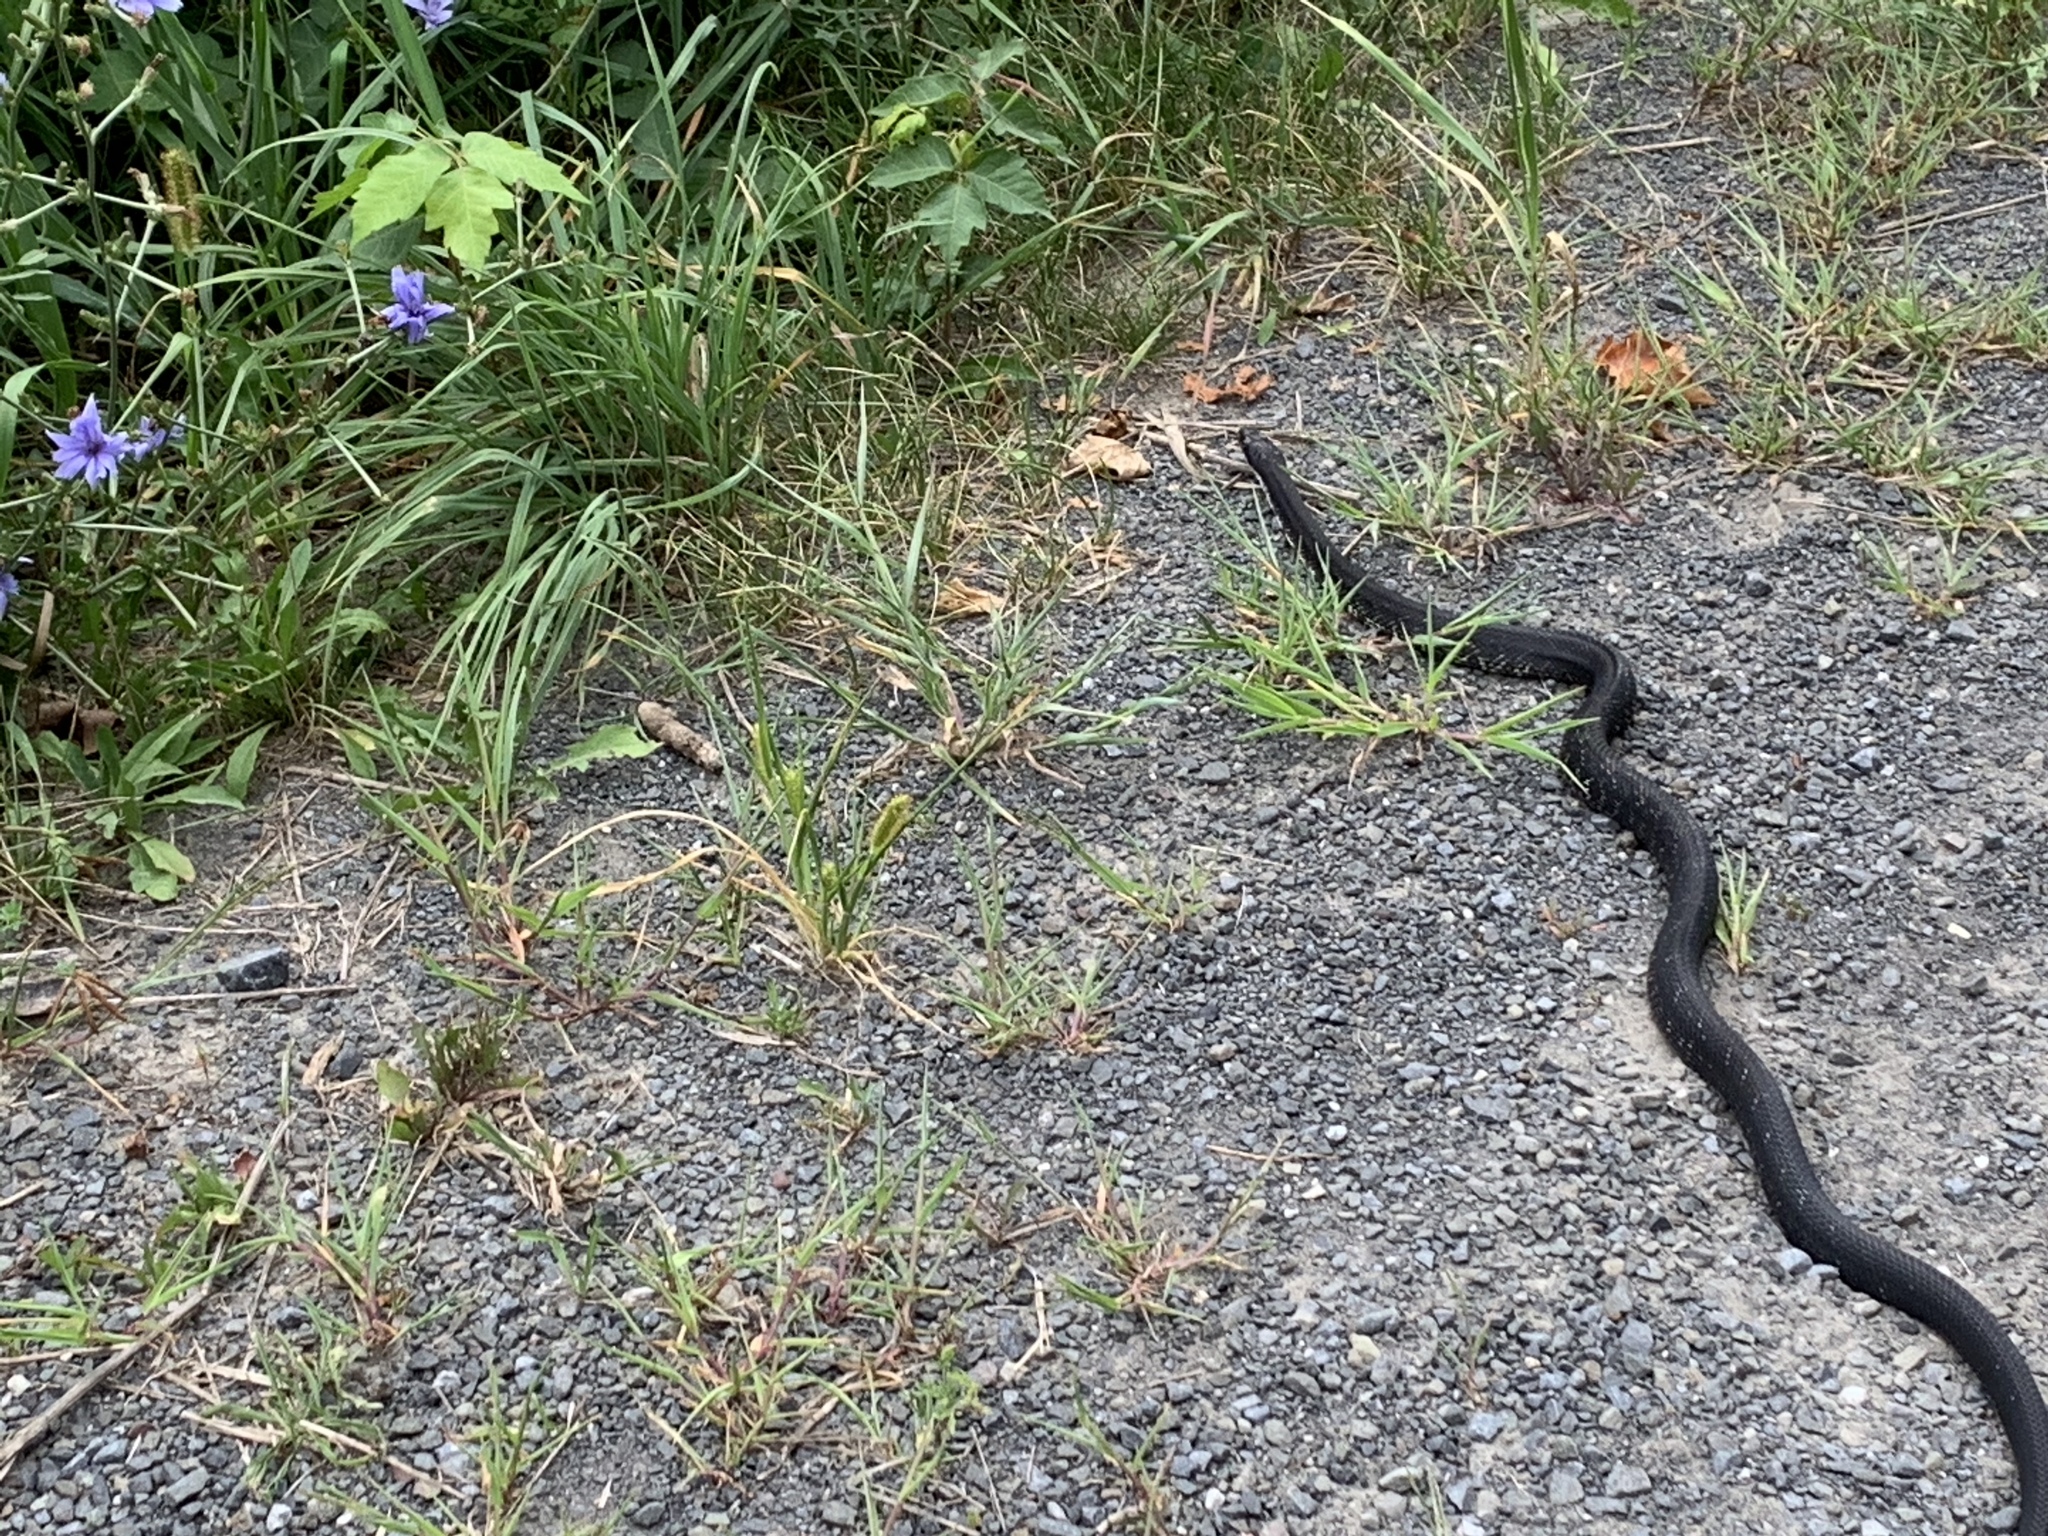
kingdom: Animalia
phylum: Chordata
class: Squamata
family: Colubridae
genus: Pantherophis
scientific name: Pantherophis alleghaniensis
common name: Eastern rat snake
